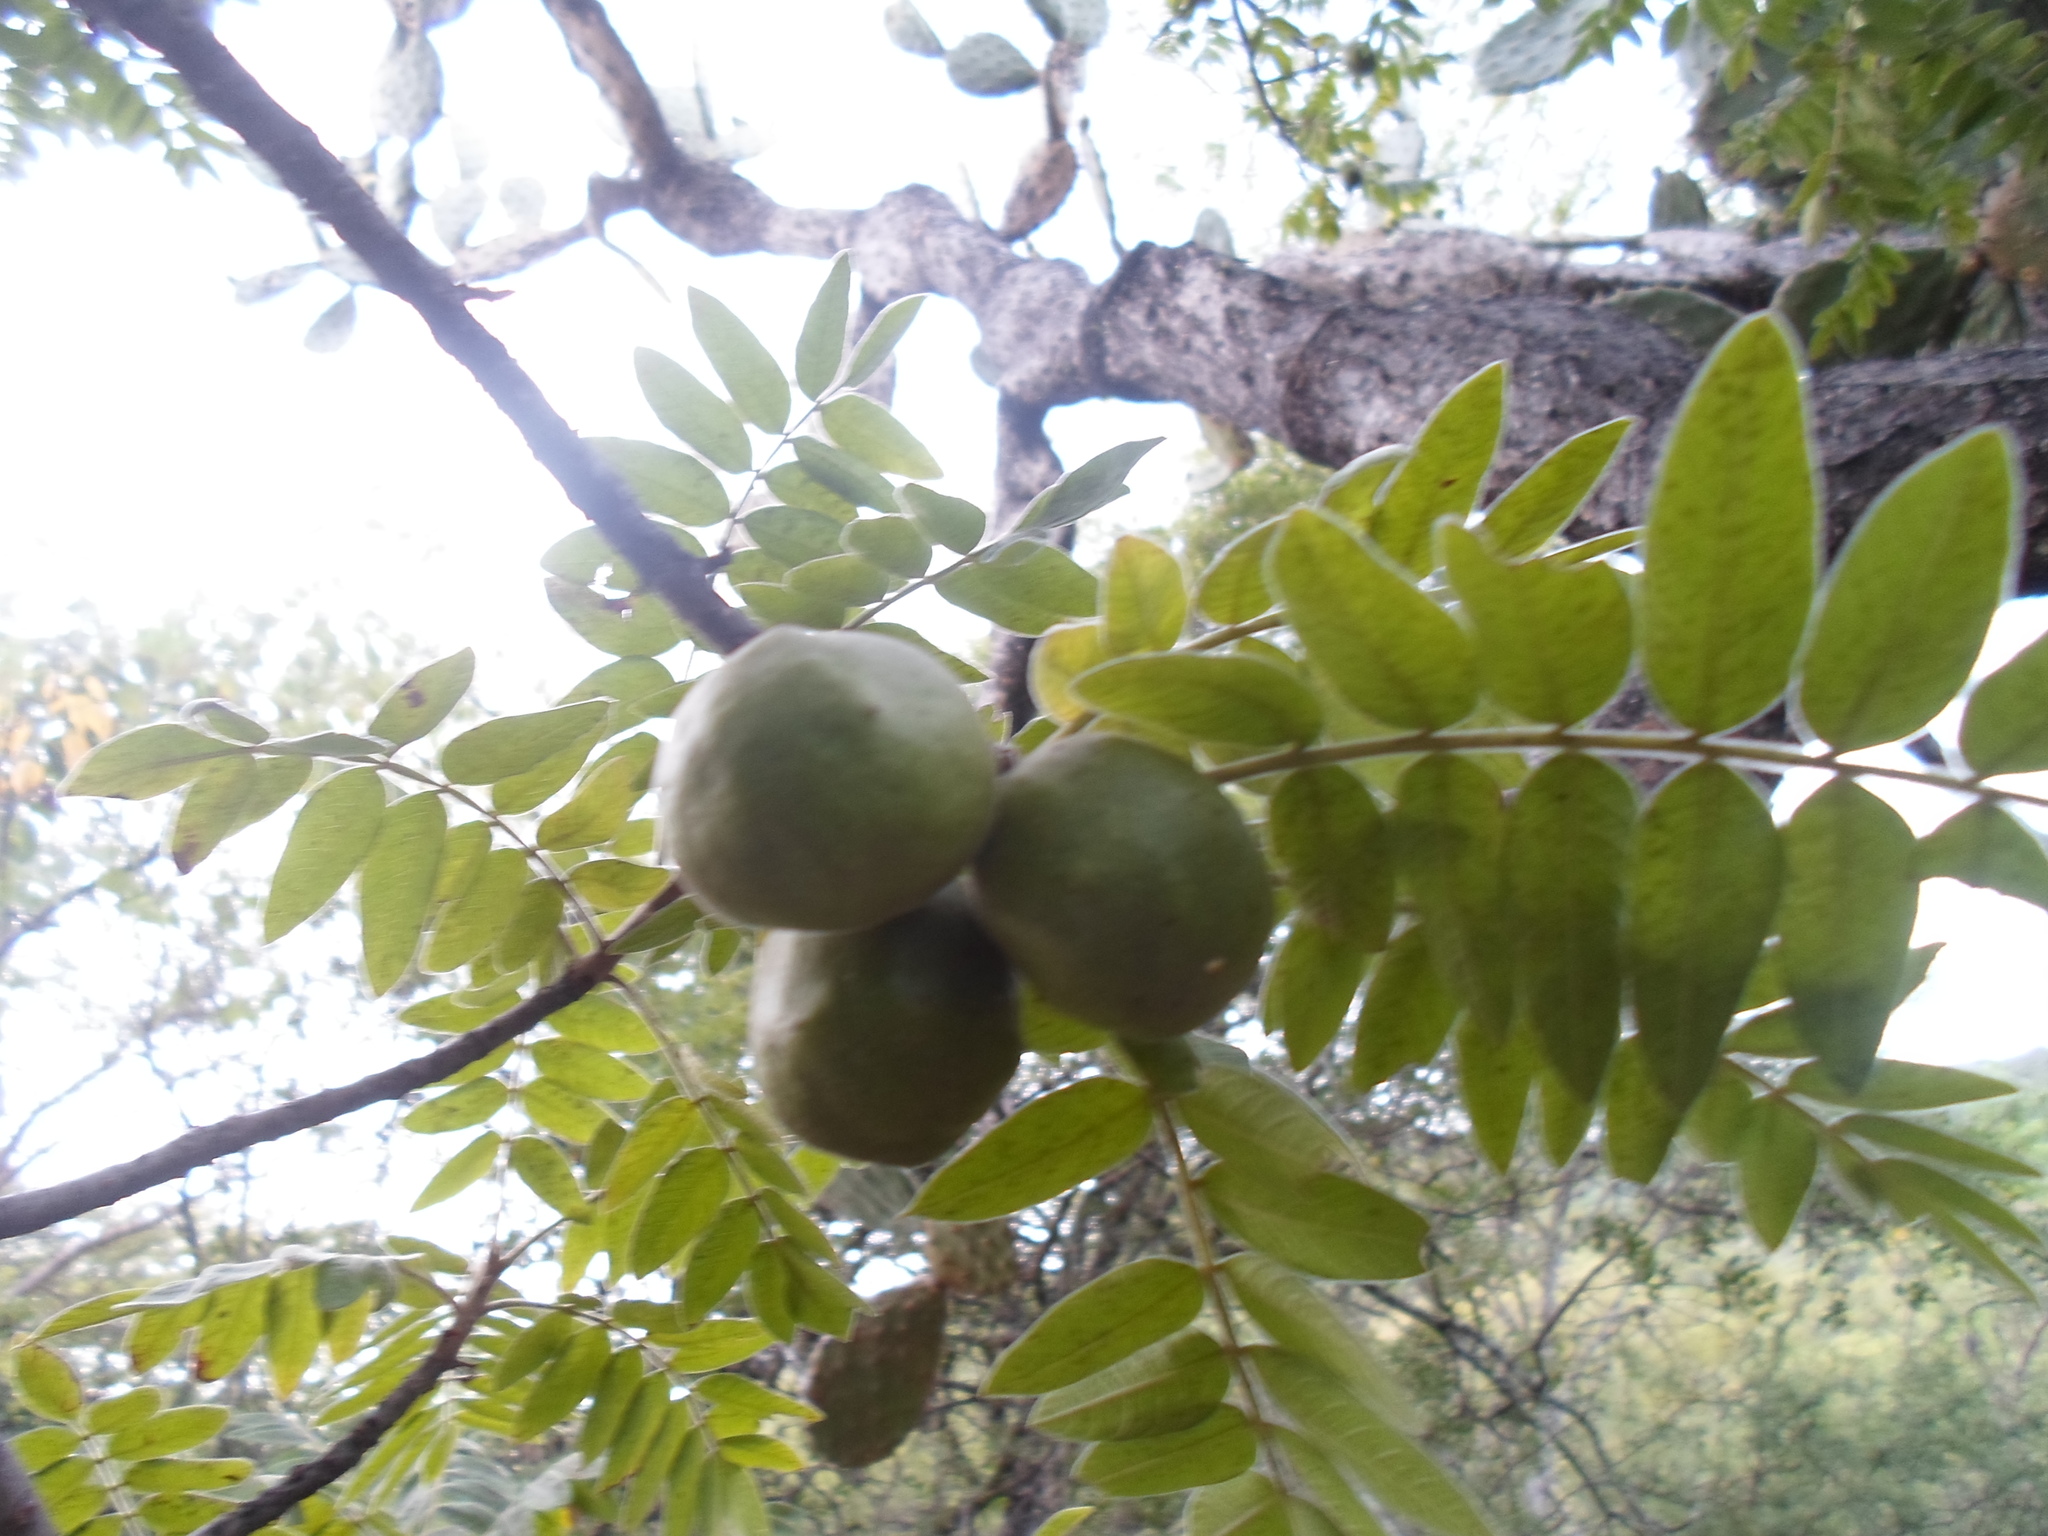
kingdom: Plantae
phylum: Tracheophyta
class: Magnoliopsida
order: Sapindales
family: Anacardiaceae
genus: Cyrtocarpa
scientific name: Cyrtocarpa procera
